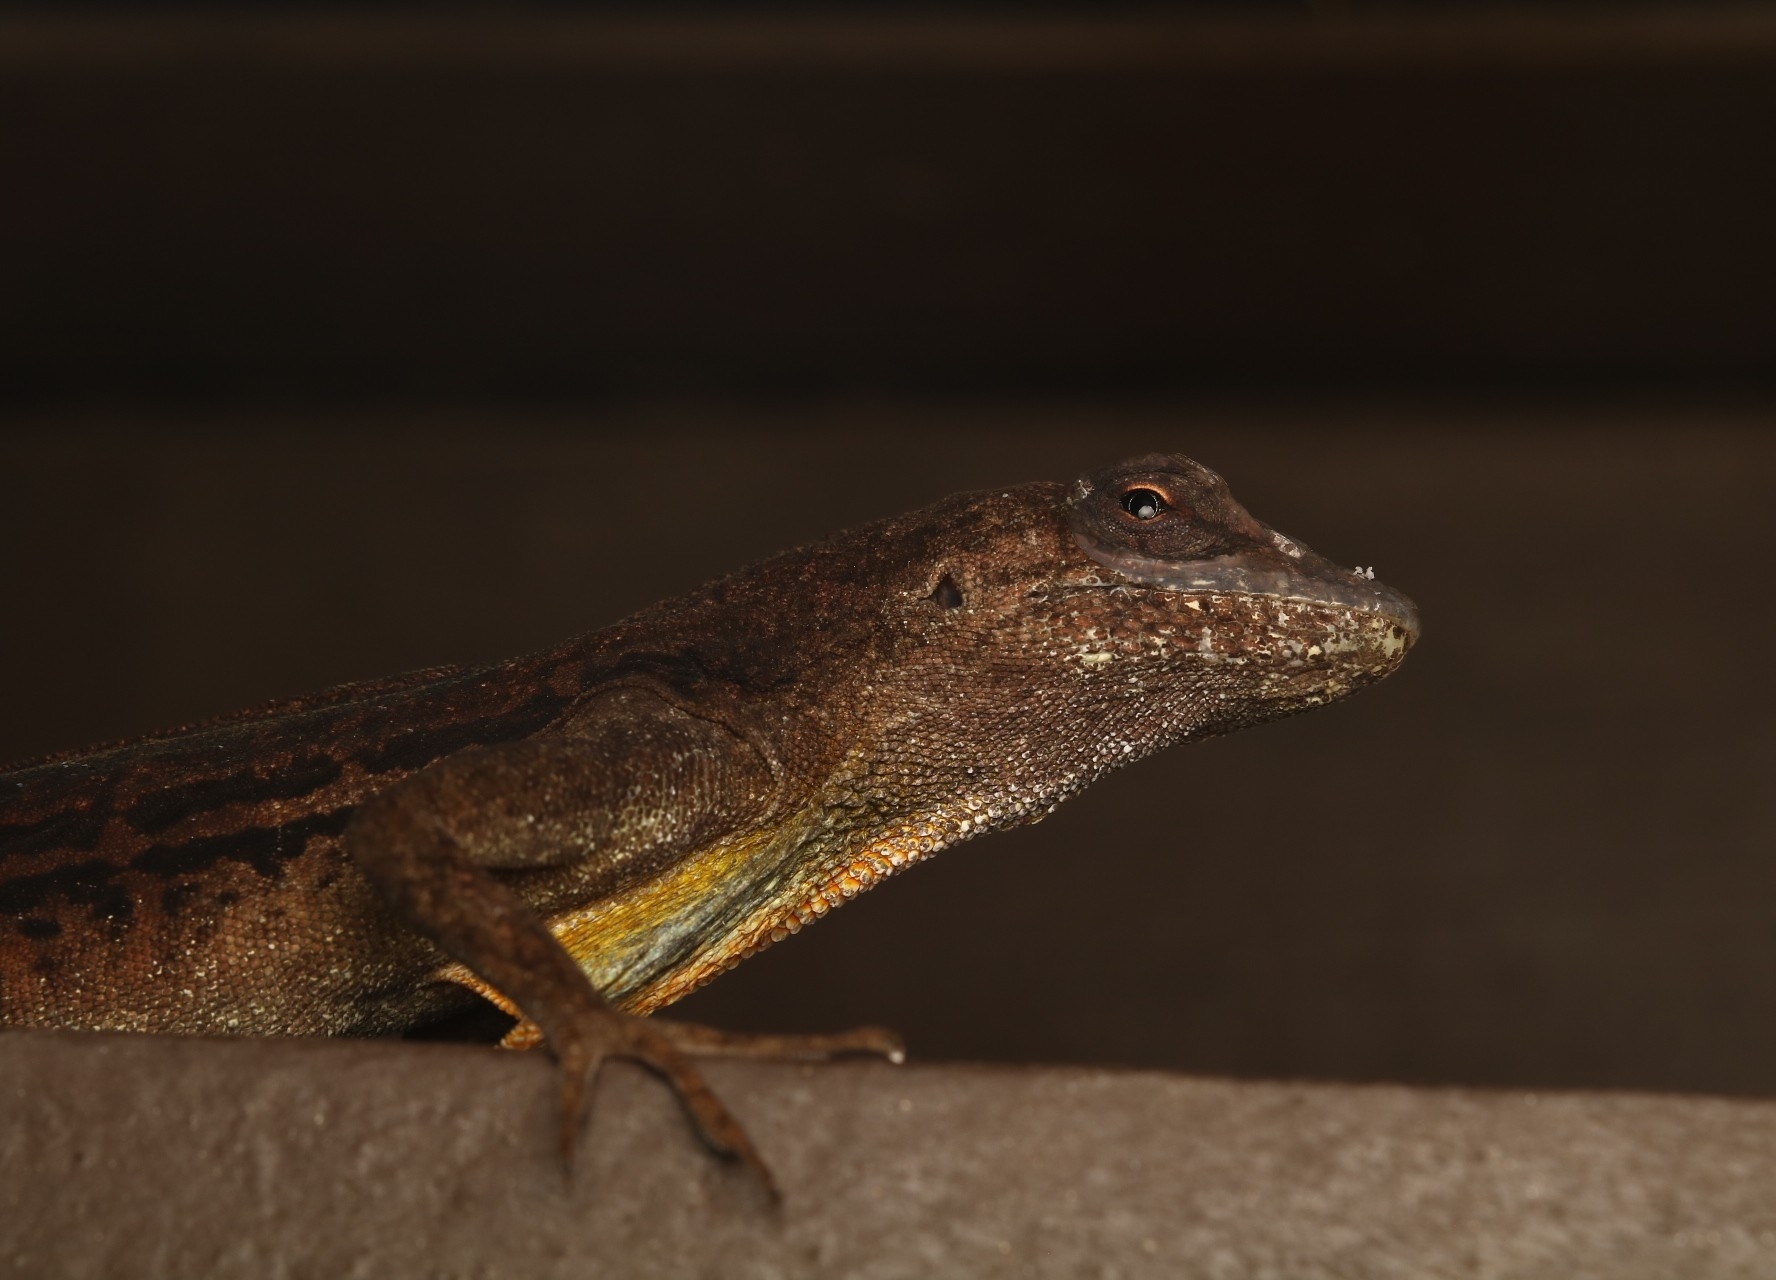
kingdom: Animalia
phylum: Chordata
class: Squamata
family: Dactyloidae
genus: Anolis
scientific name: Anolis lineatus
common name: Striped anole
